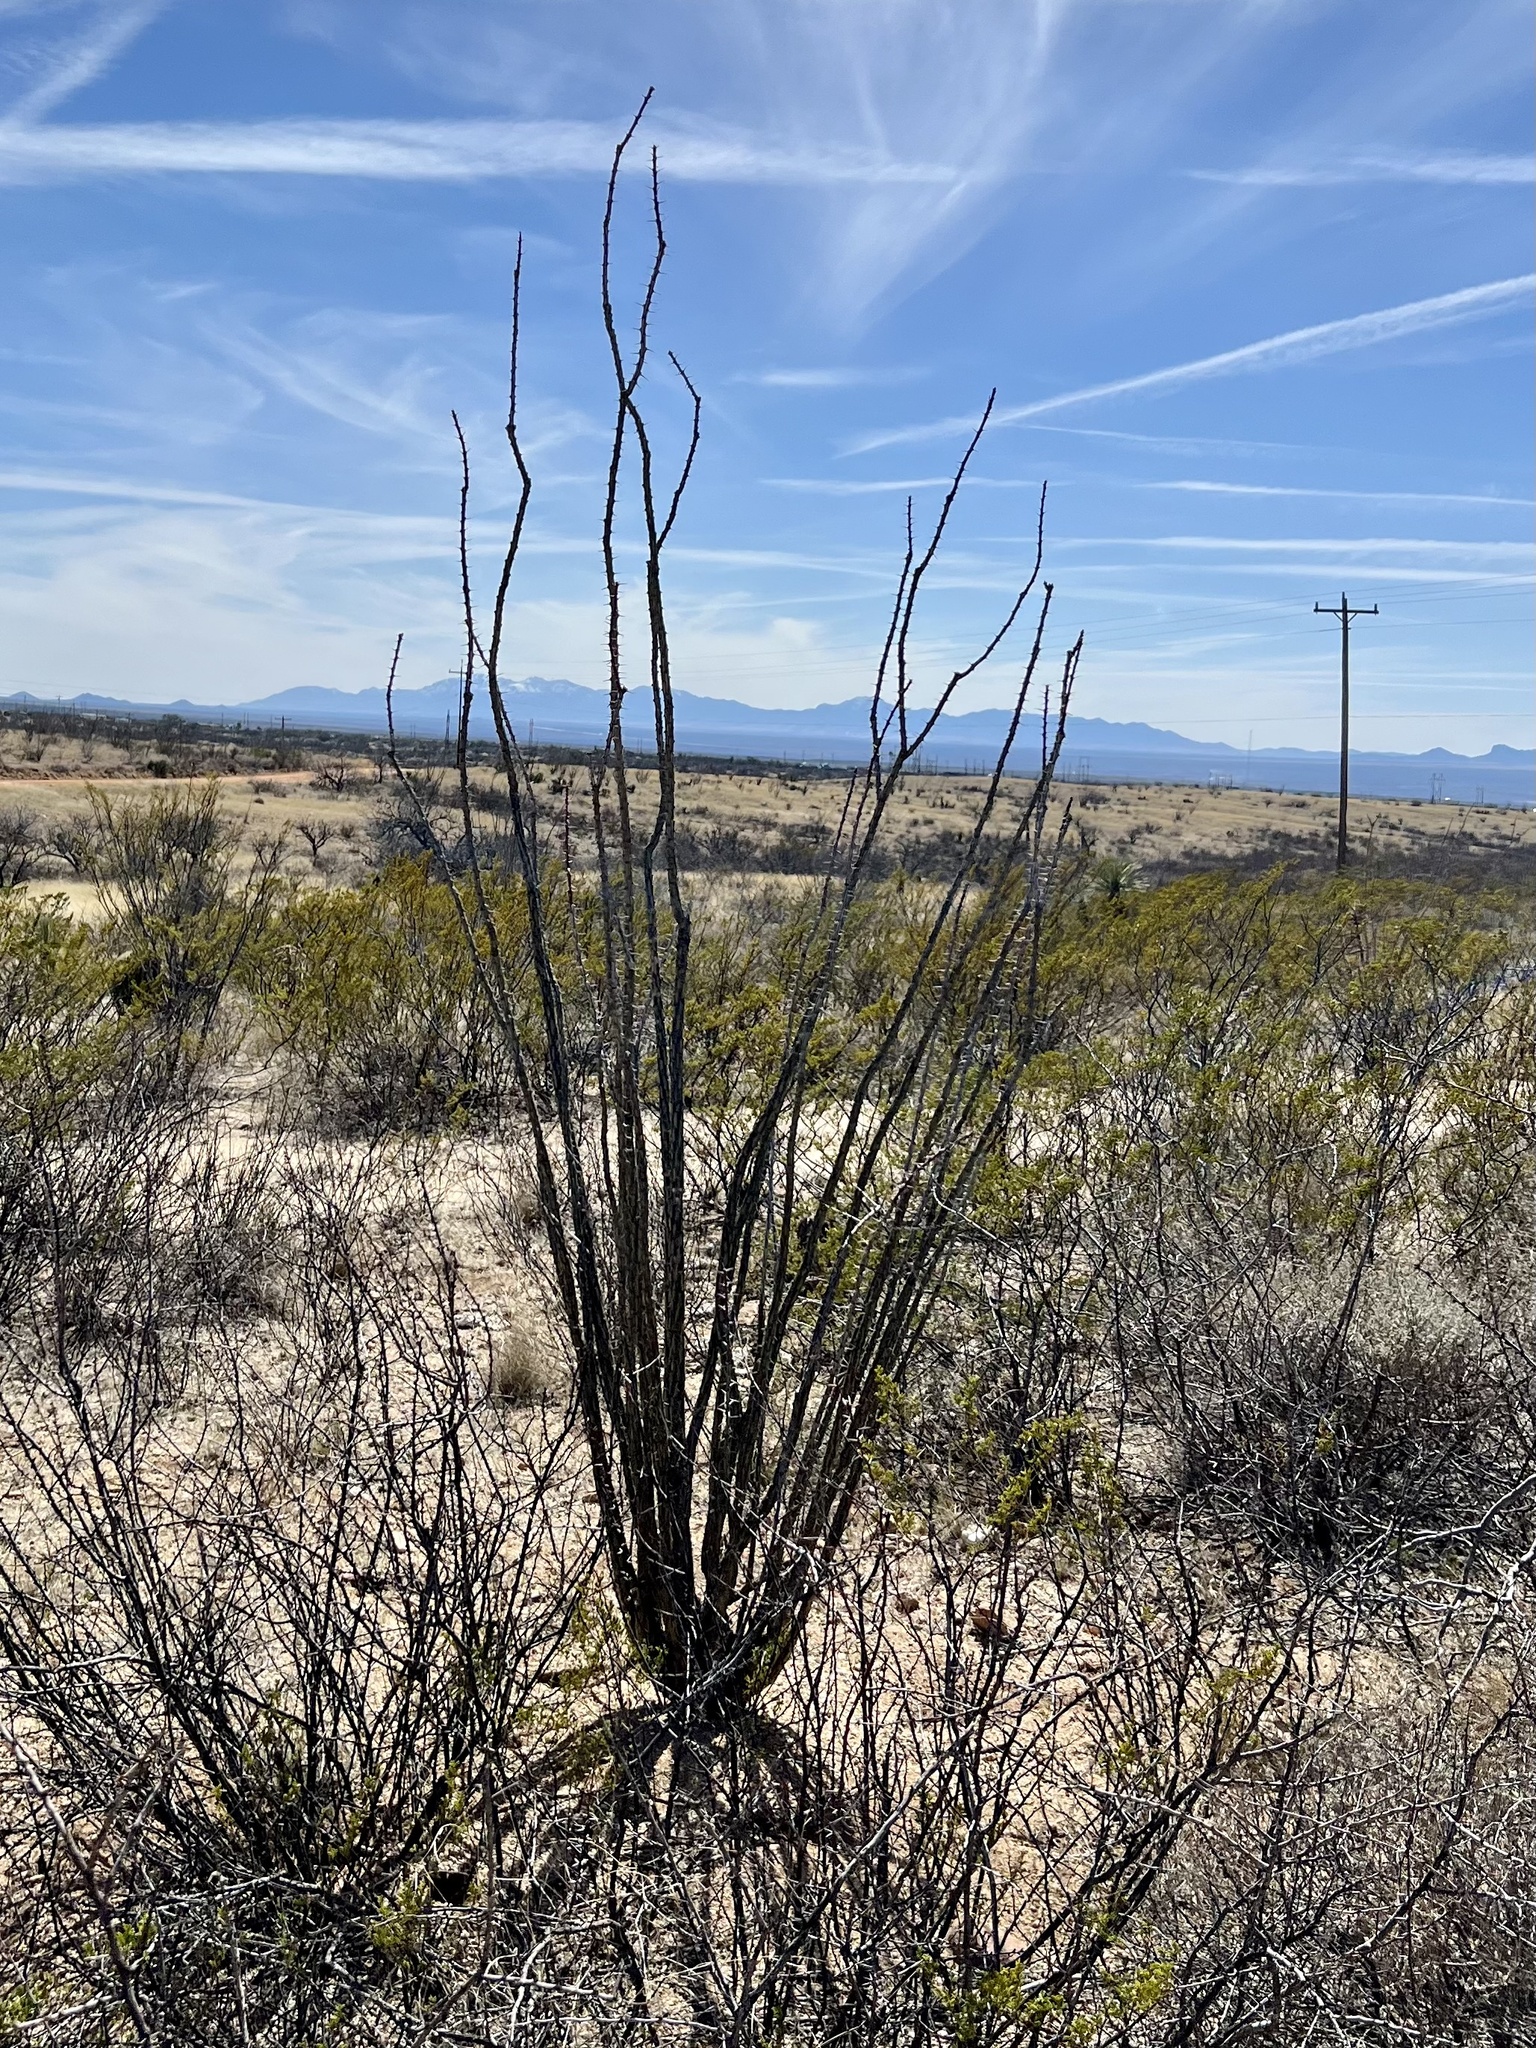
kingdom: Plantae
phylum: Tracheophyta
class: Magnoliopsida
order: Ericales
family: Fouquieriaceae
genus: Fouquieria
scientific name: Fouquieria splendens
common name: Vine-cactus
